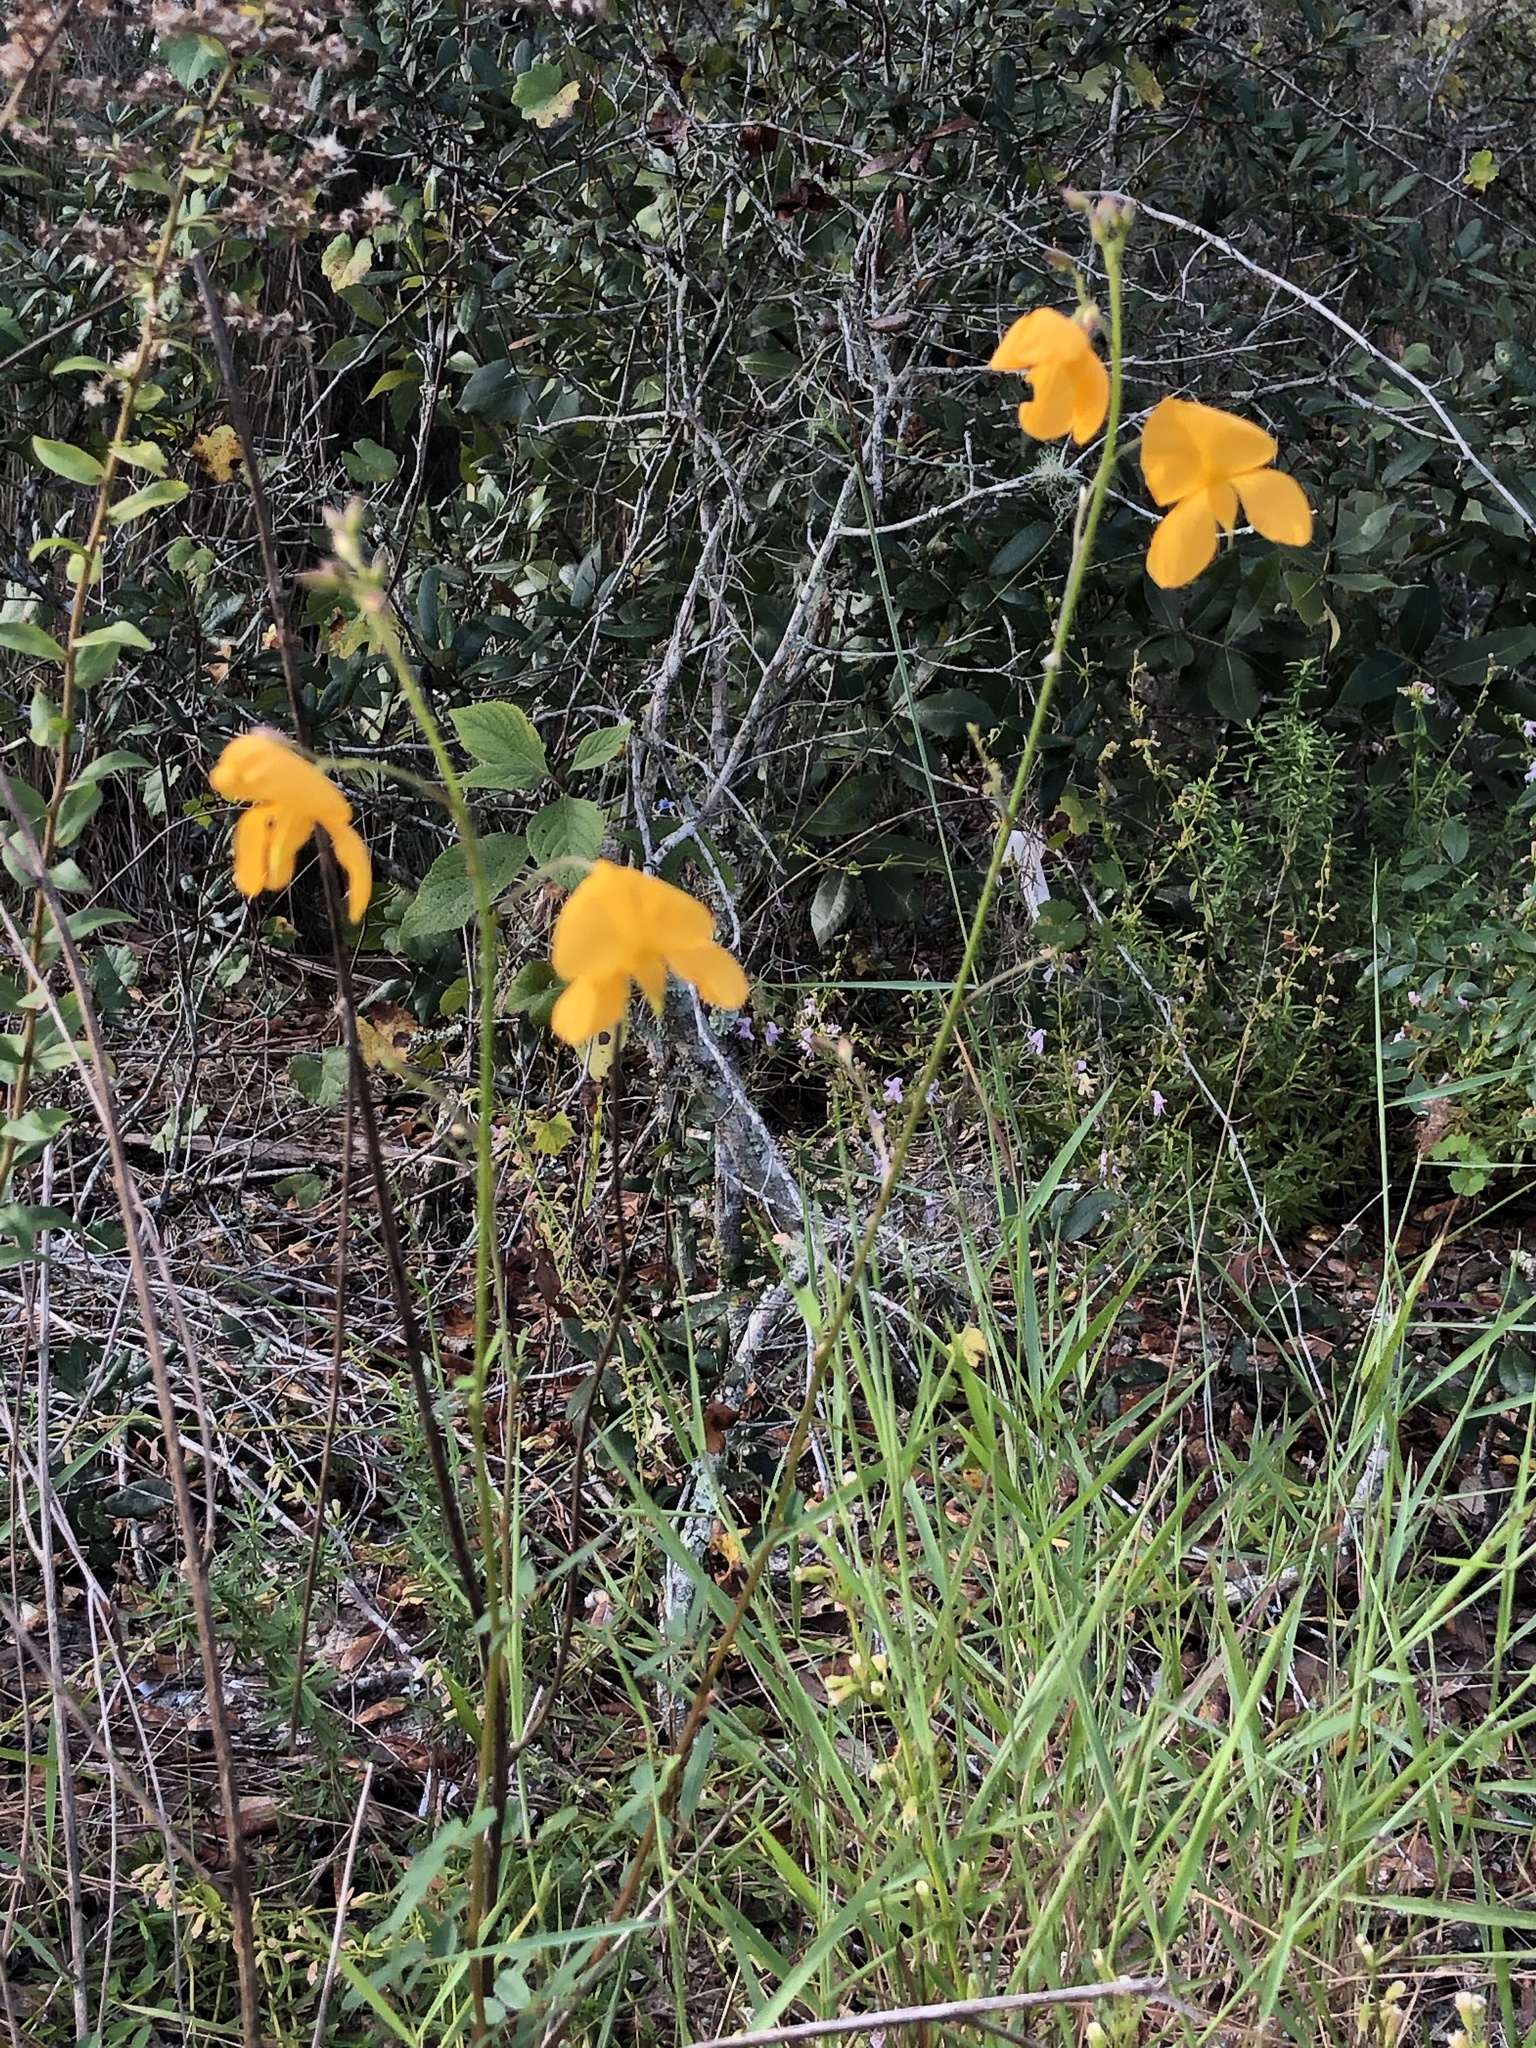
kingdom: Plantae
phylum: Tracheophyta
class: Magnoliopsida
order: Fabales
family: Fabaceae
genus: Chapmannia
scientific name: Chapmannia floridana
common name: Alicia
